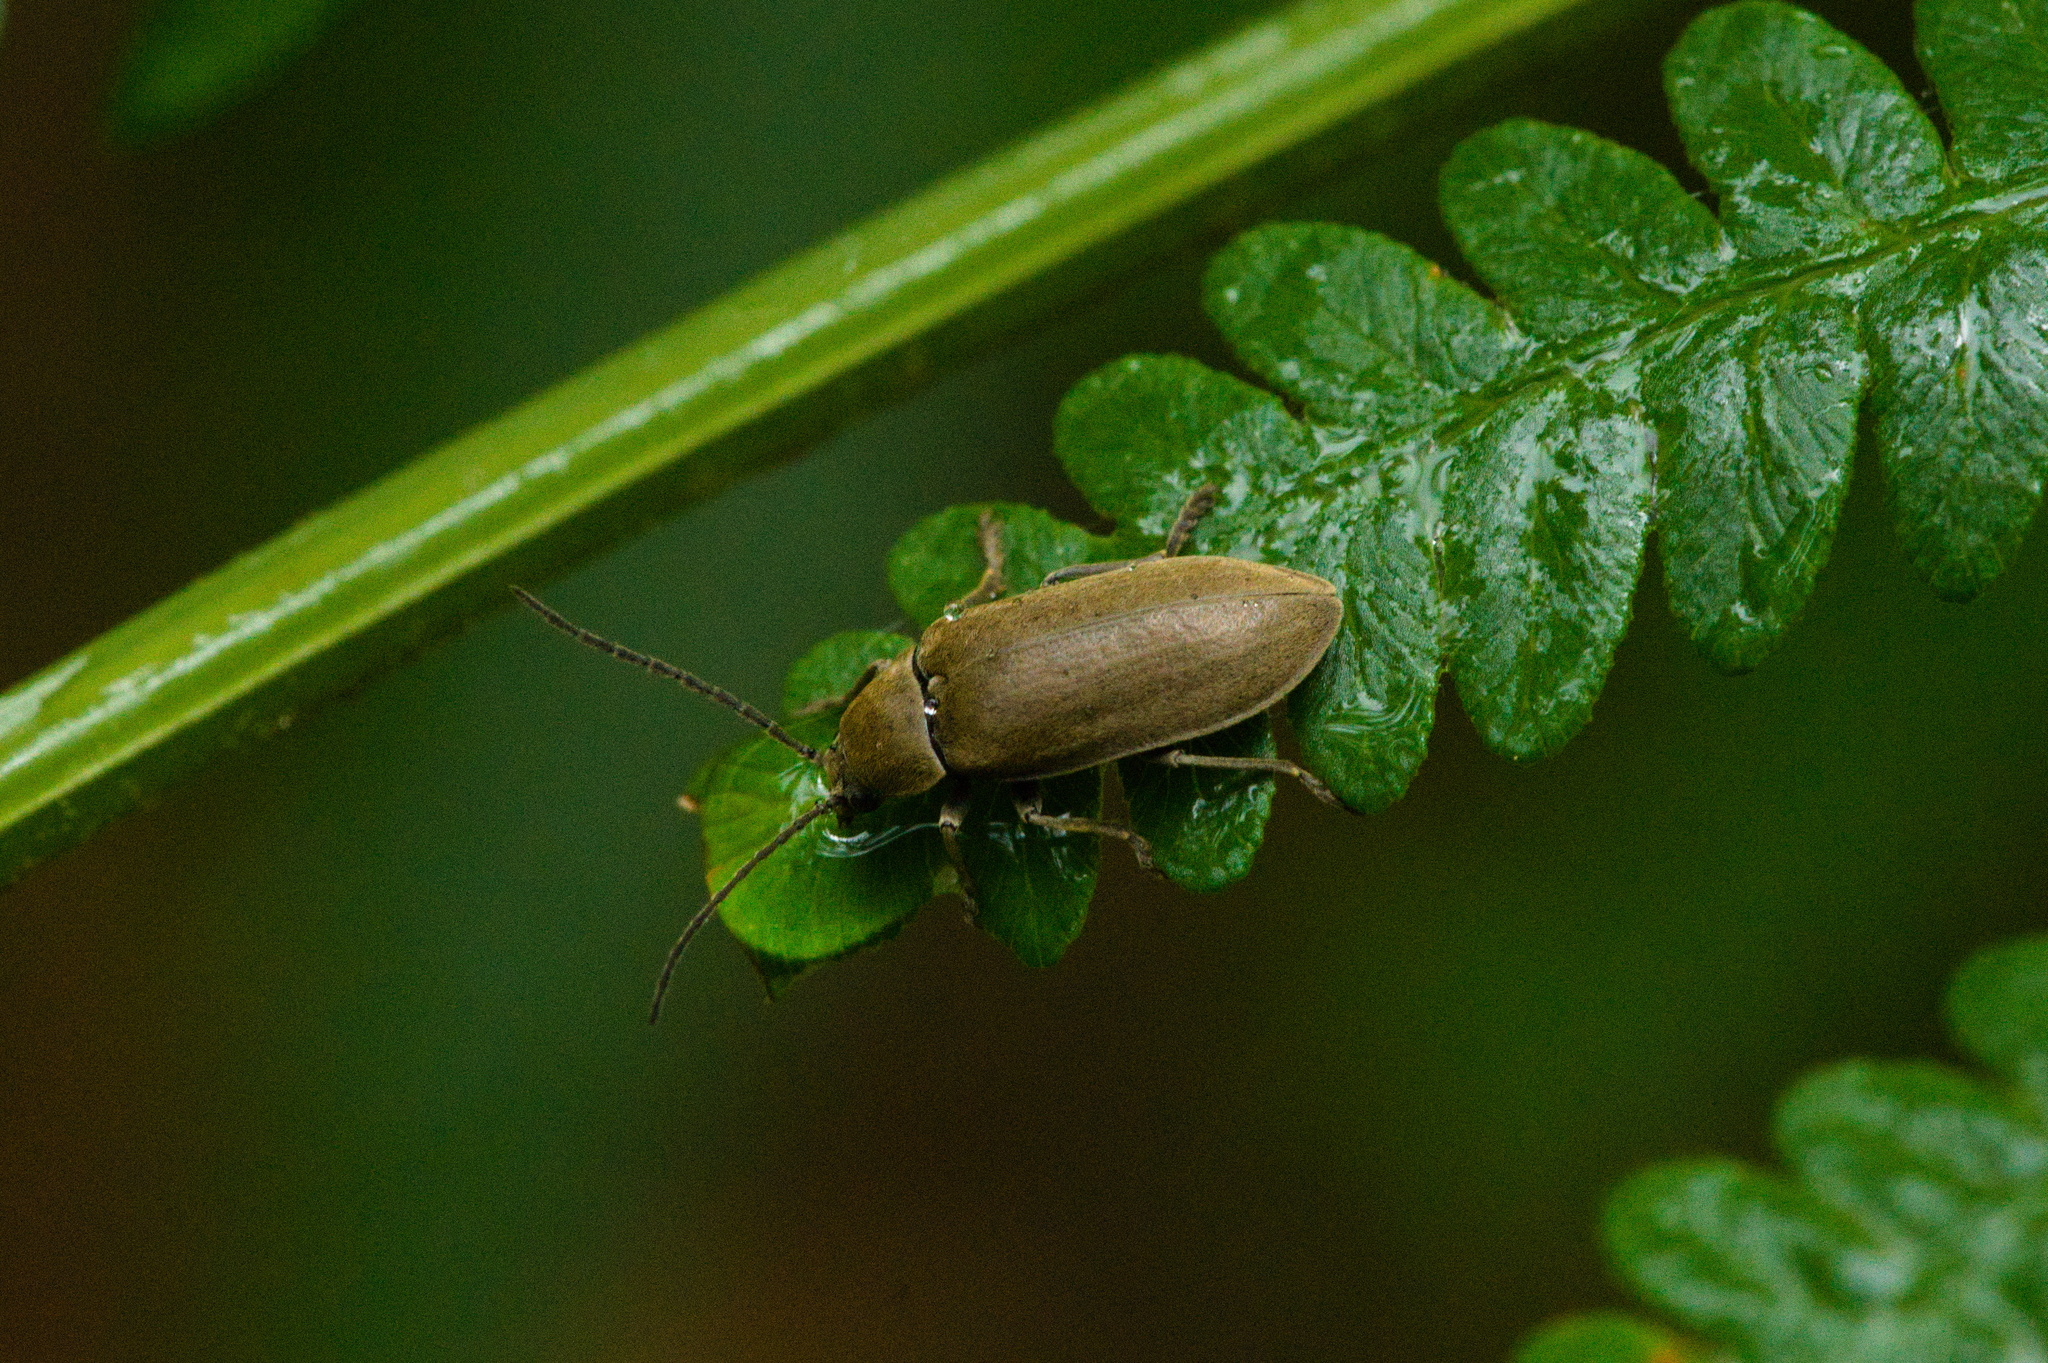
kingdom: Animalia
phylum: Arthropoda
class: Insecta
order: Coleoptera
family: Dascillidae
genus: Dascillus
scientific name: Dascillus cervinus
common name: Orchid beetle
